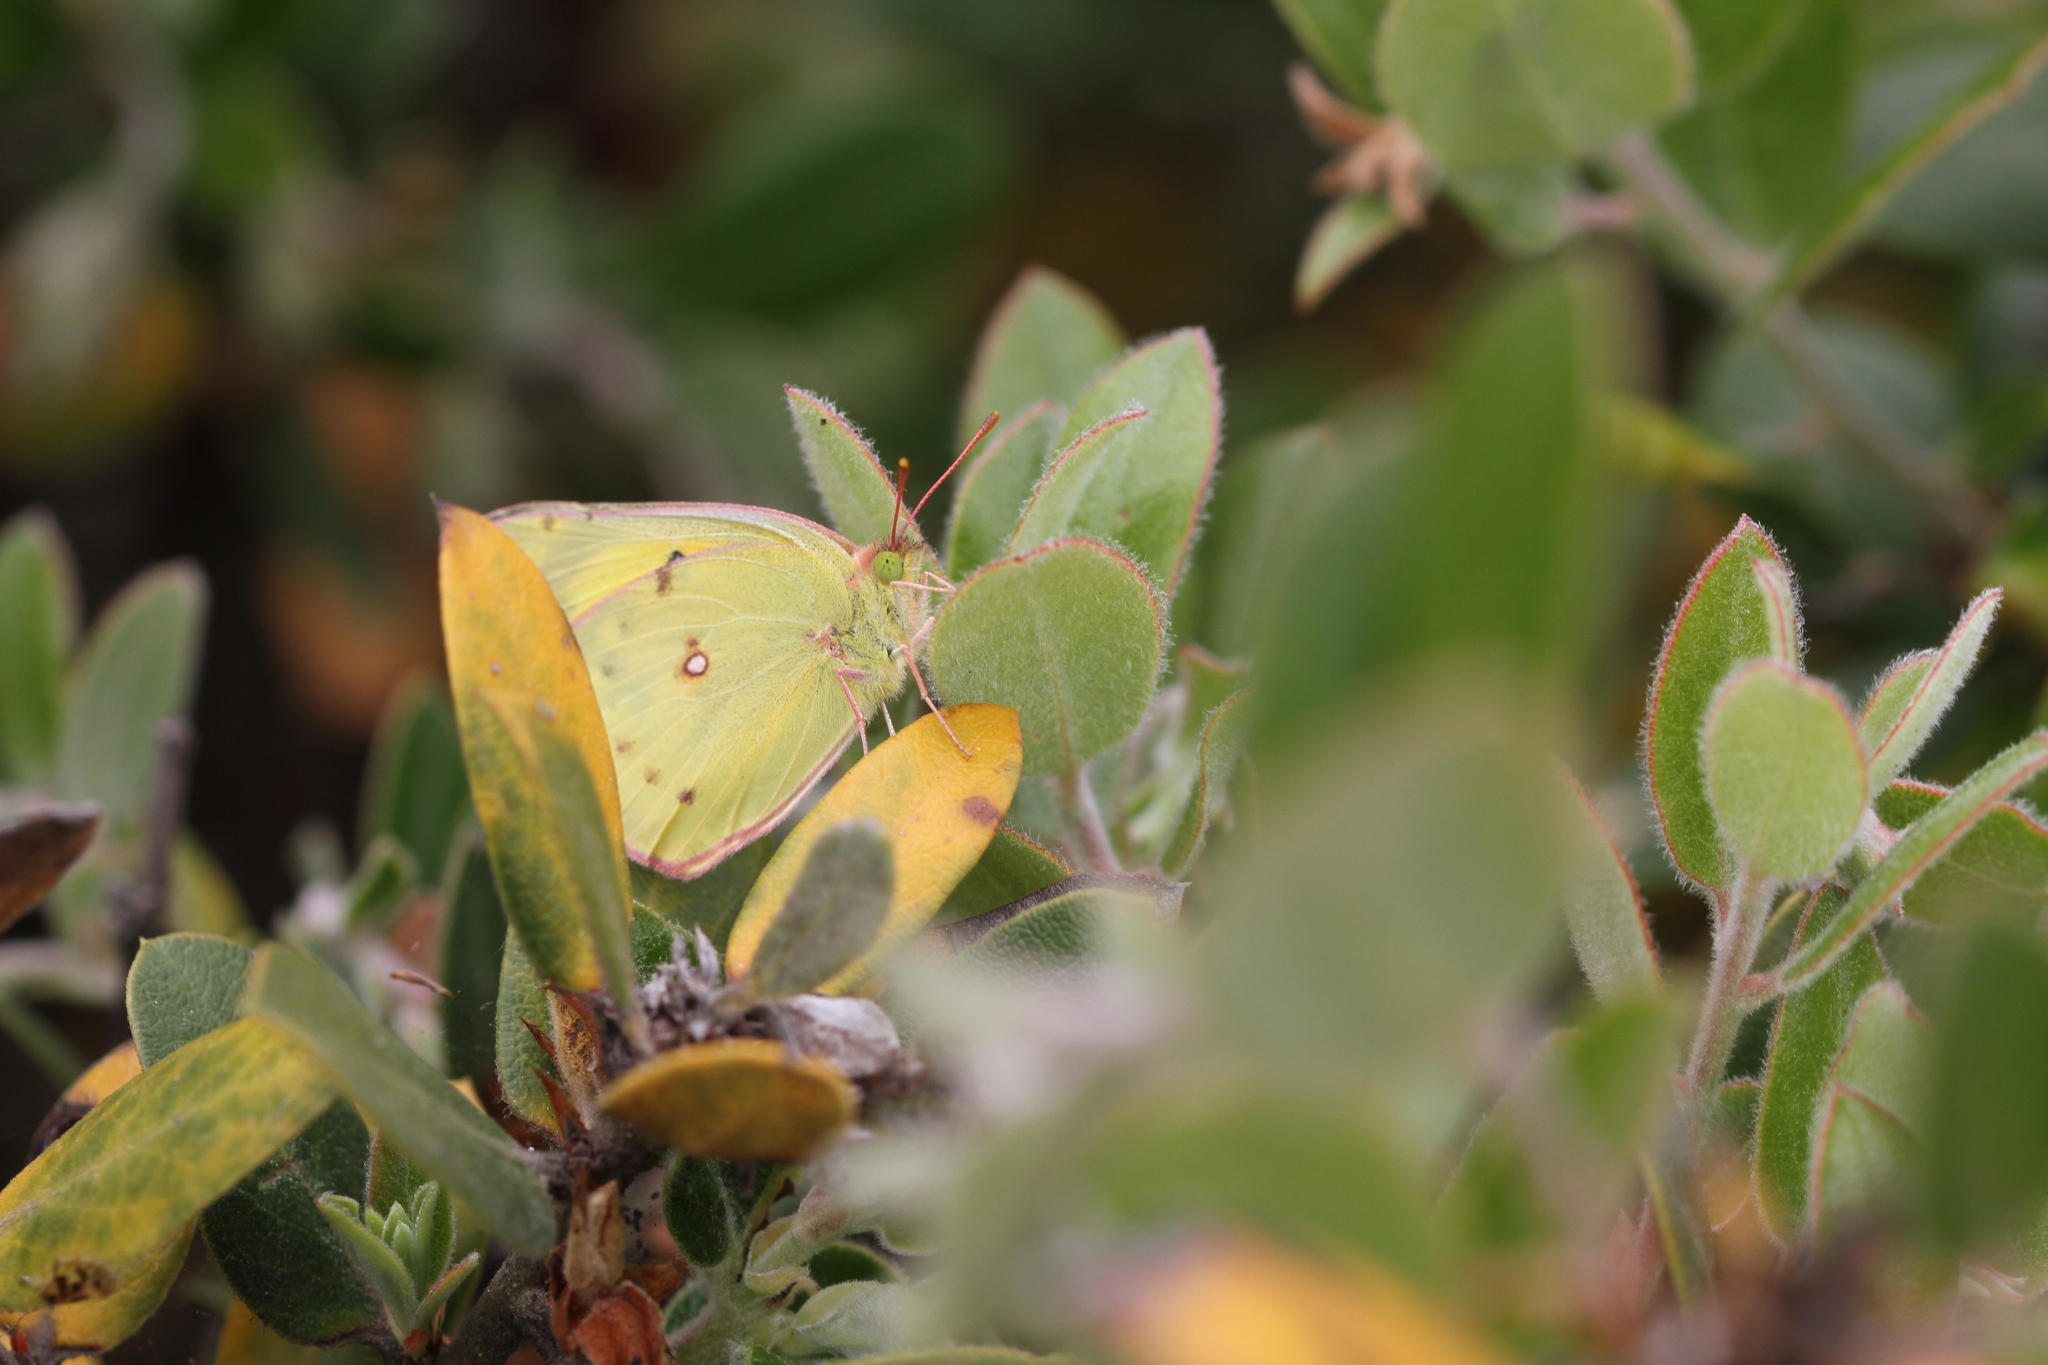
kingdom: Animalia
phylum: Arthropoda
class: Insecta
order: Lepidoptera
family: Pieridae
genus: Colias
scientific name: Colias eurytheme
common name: Alfalfa butterfly
